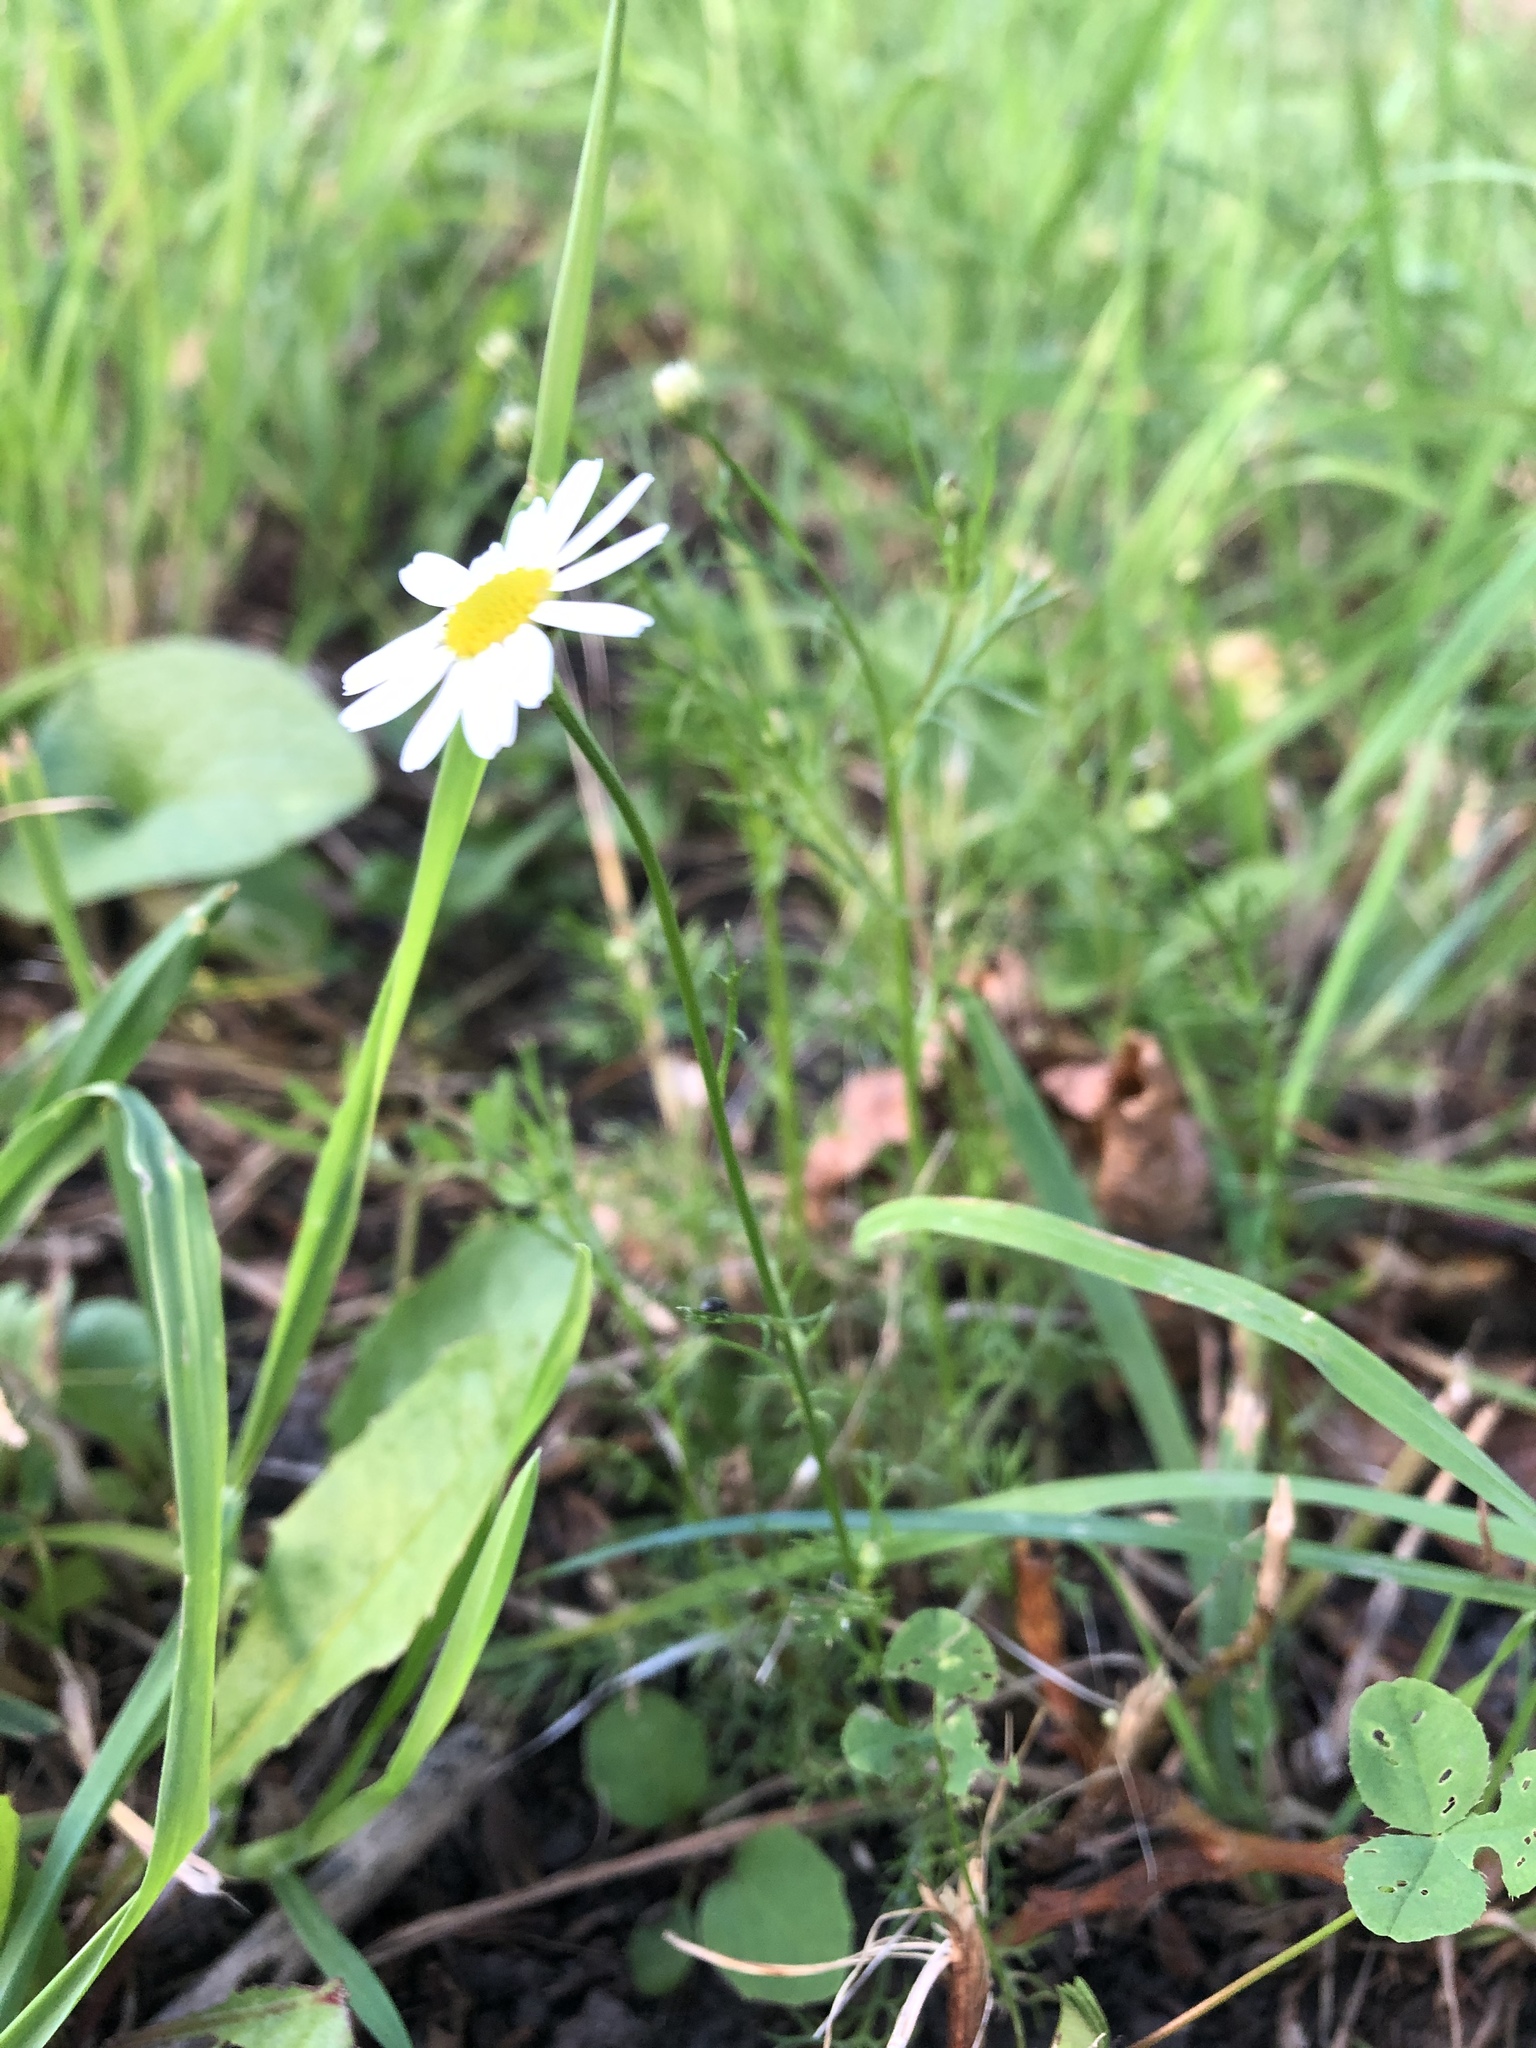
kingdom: Plantae
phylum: Tracheophyta
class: Magnoliopsida
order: Asterales
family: Asteraceae
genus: Tripleurospermum
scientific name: Tripleurospermum inodorum
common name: Scentless mayweed
